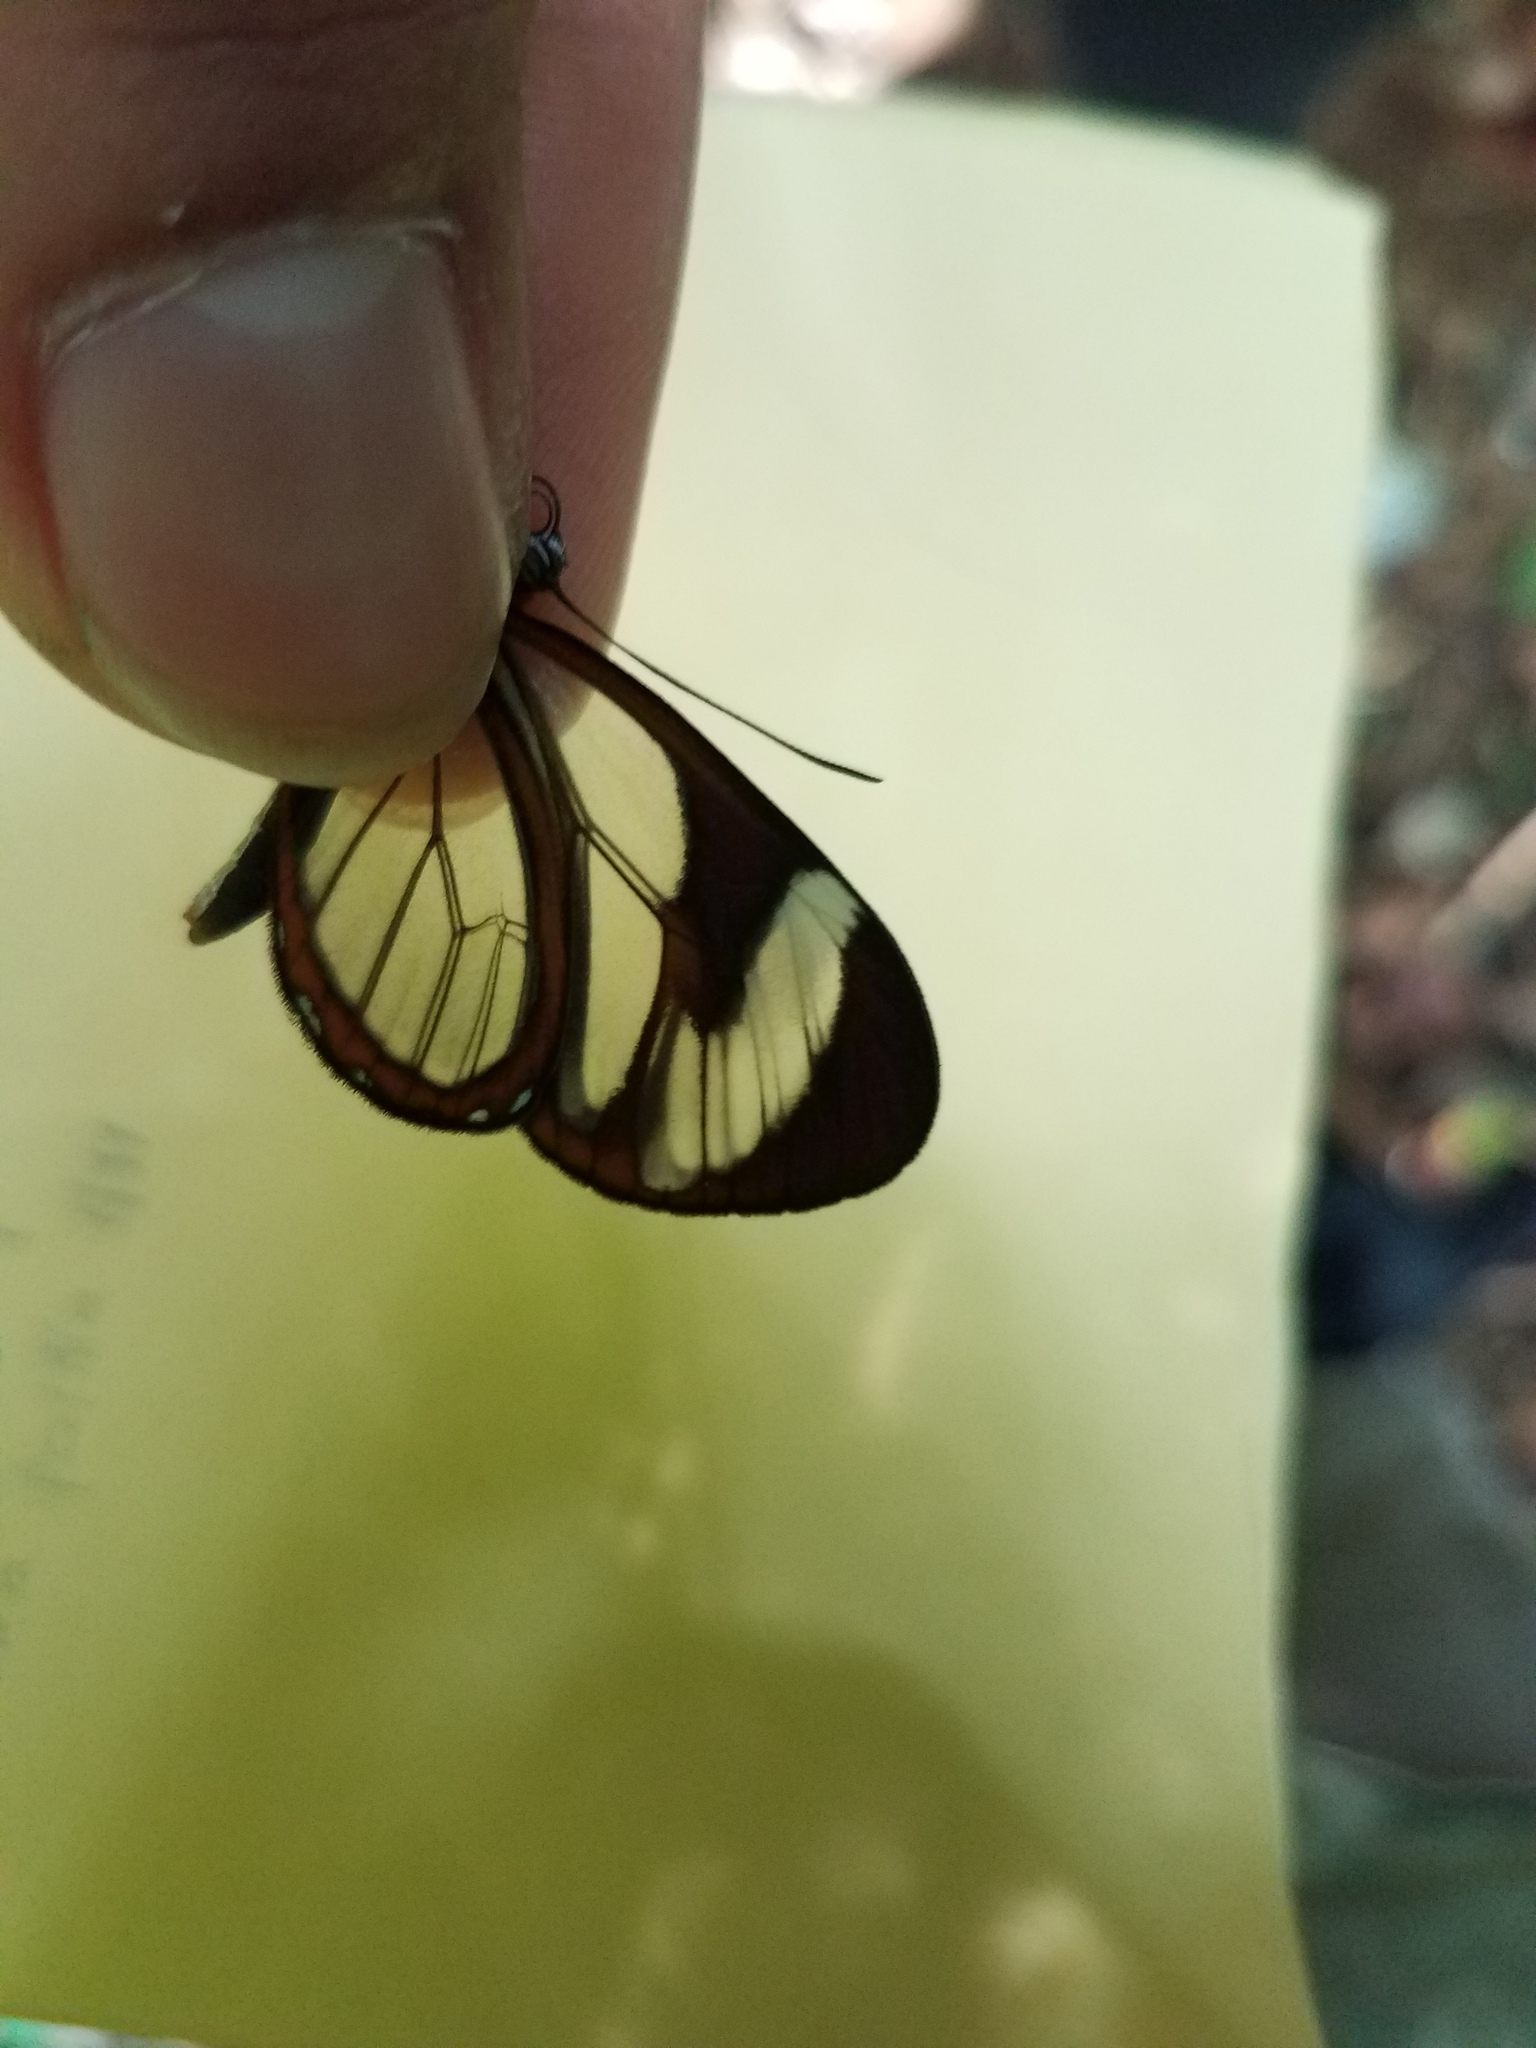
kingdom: Animalia
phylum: Arthropoda
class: Insecta
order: Lepidoptera
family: Nymphalidae
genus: Ithomia
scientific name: Ithomia patilla
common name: Patilla clearwing
